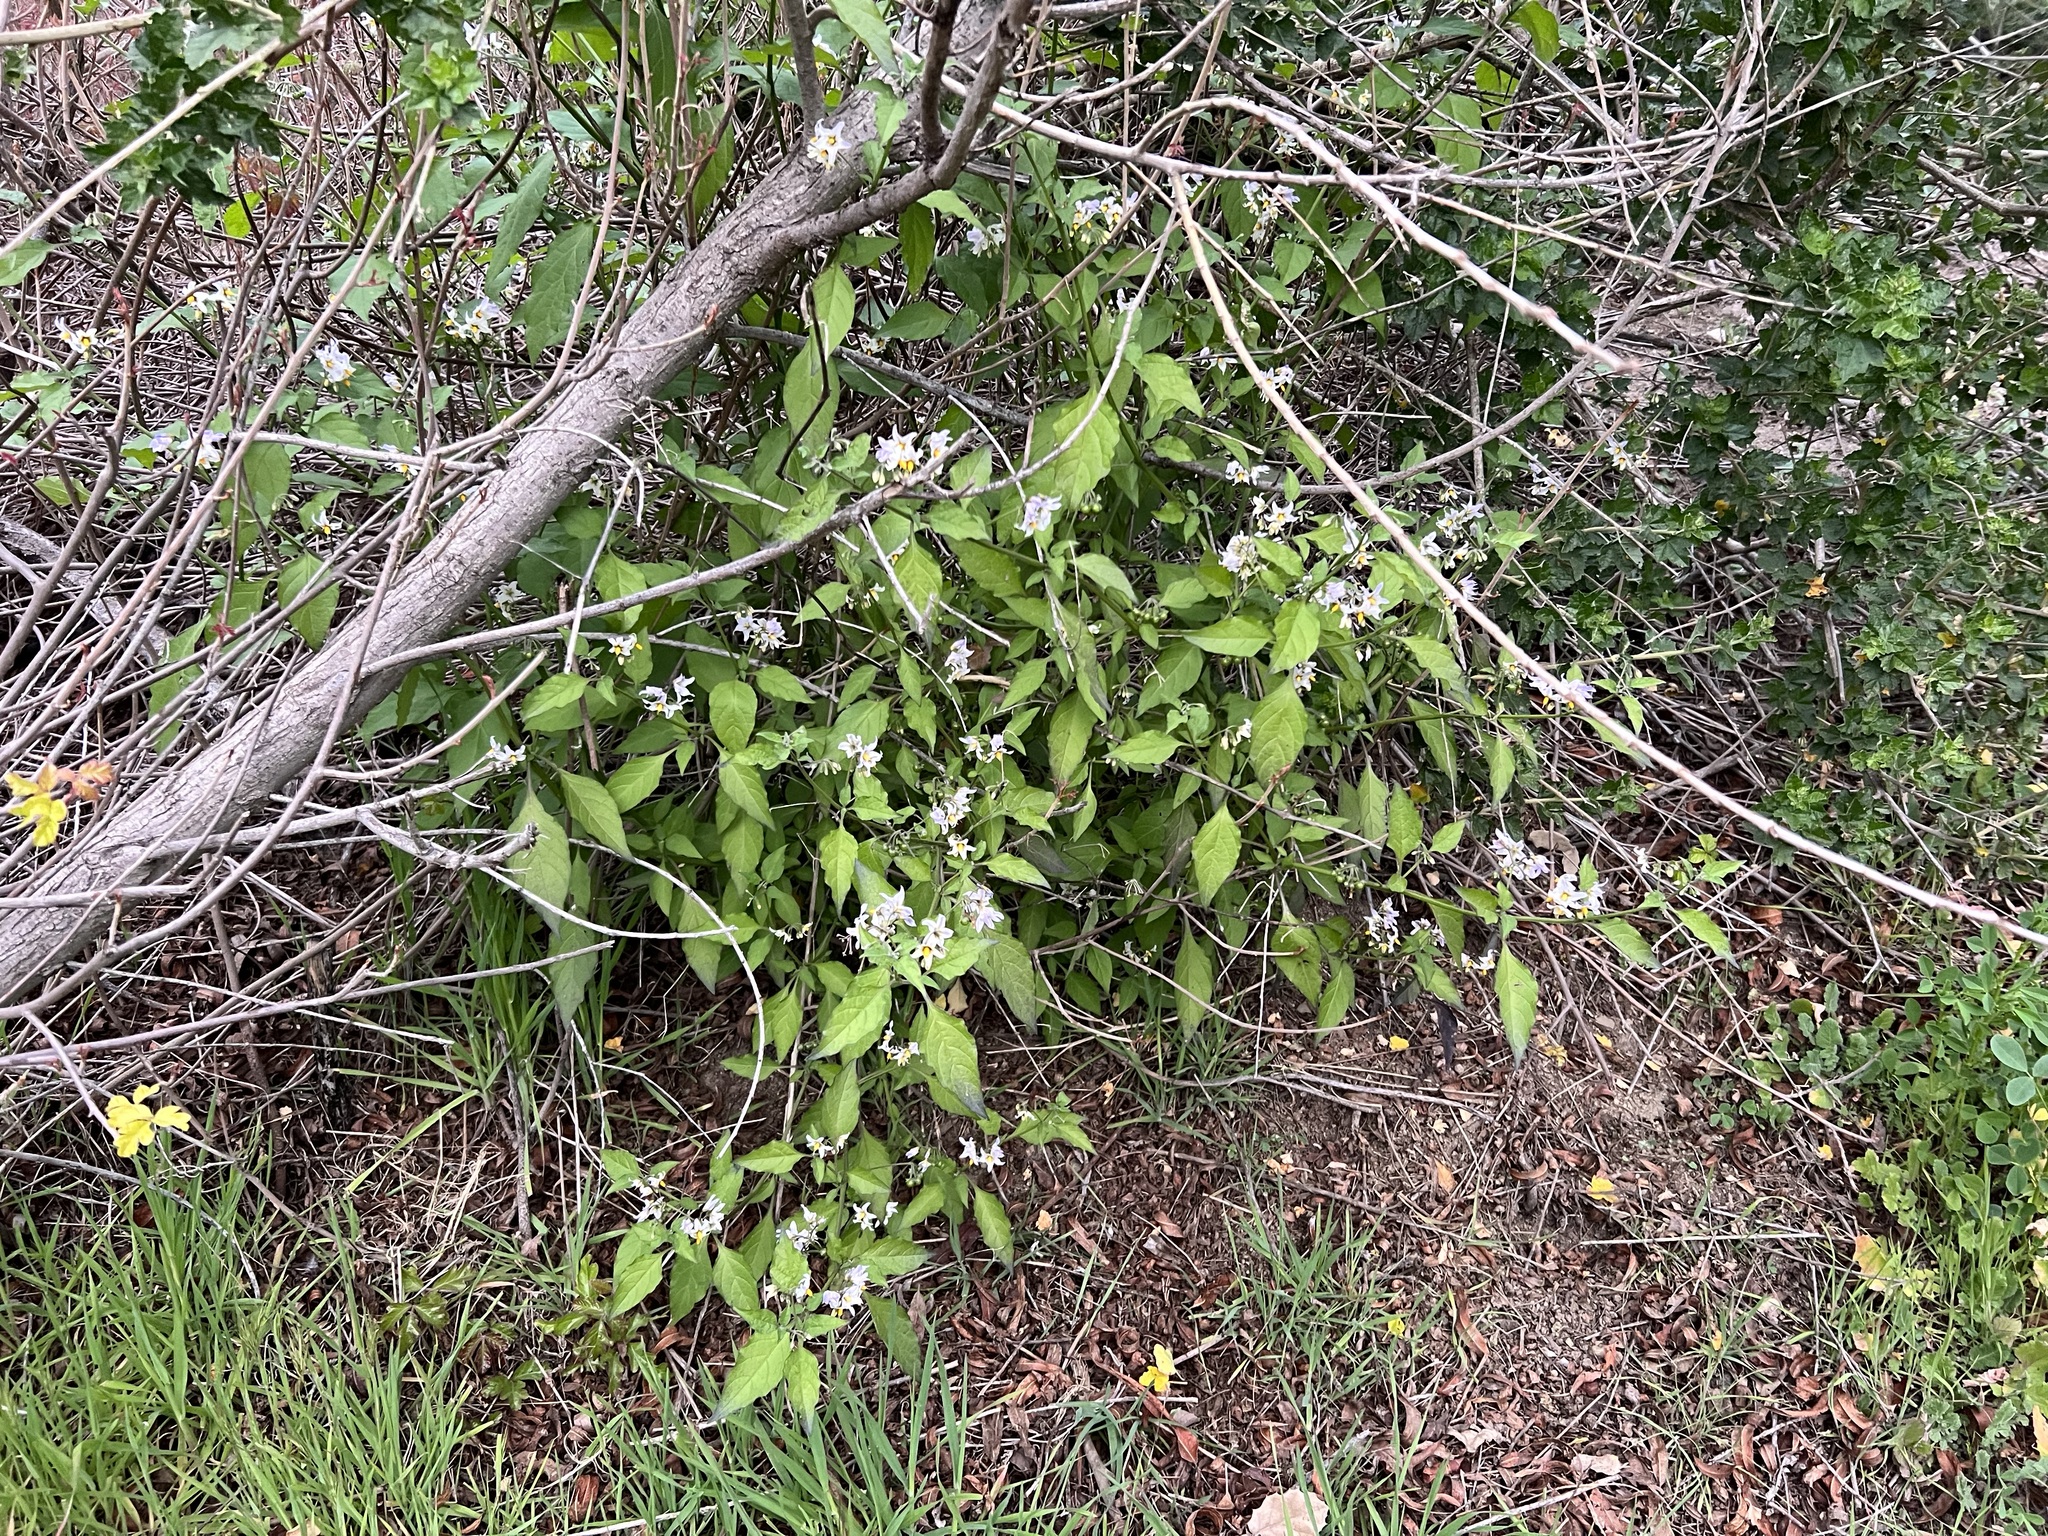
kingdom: Plantae
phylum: Tracheophyta
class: Magnoliopsida
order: Solanales
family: Solanaceae
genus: Solanum
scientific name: Solanum douglasii
